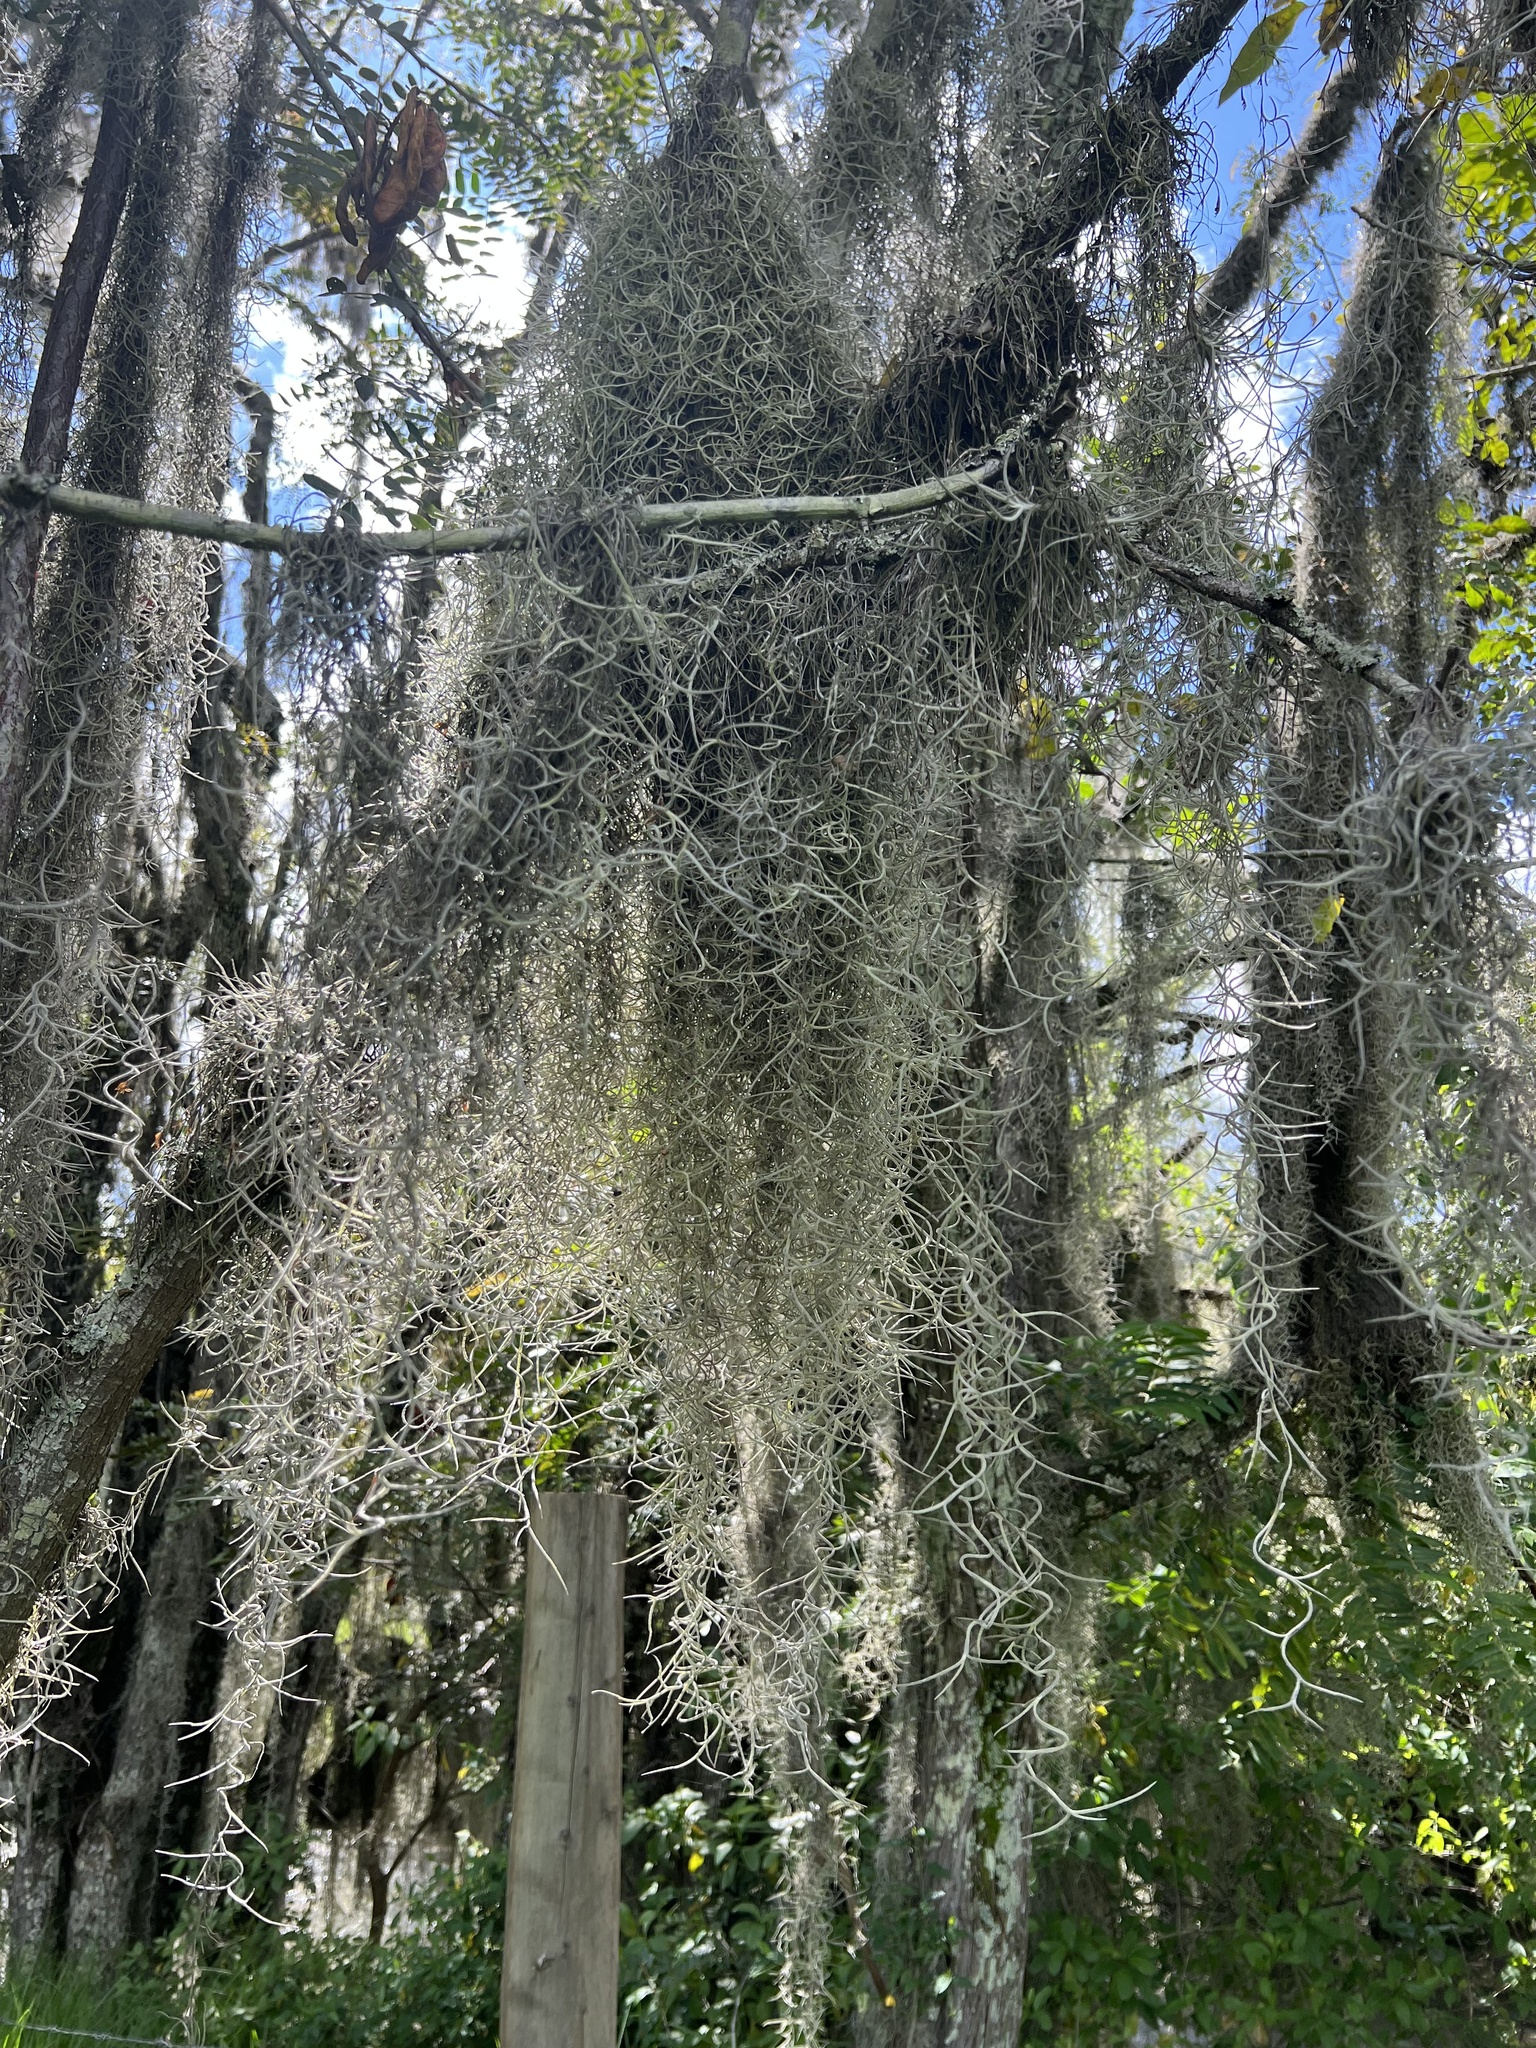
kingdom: Plantae
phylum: Tracheophyta
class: Liliopsida
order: Poales
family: Bromeliaceae
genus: Tillandsia
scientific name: Tillandsia usneoides
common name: Spanish moss
